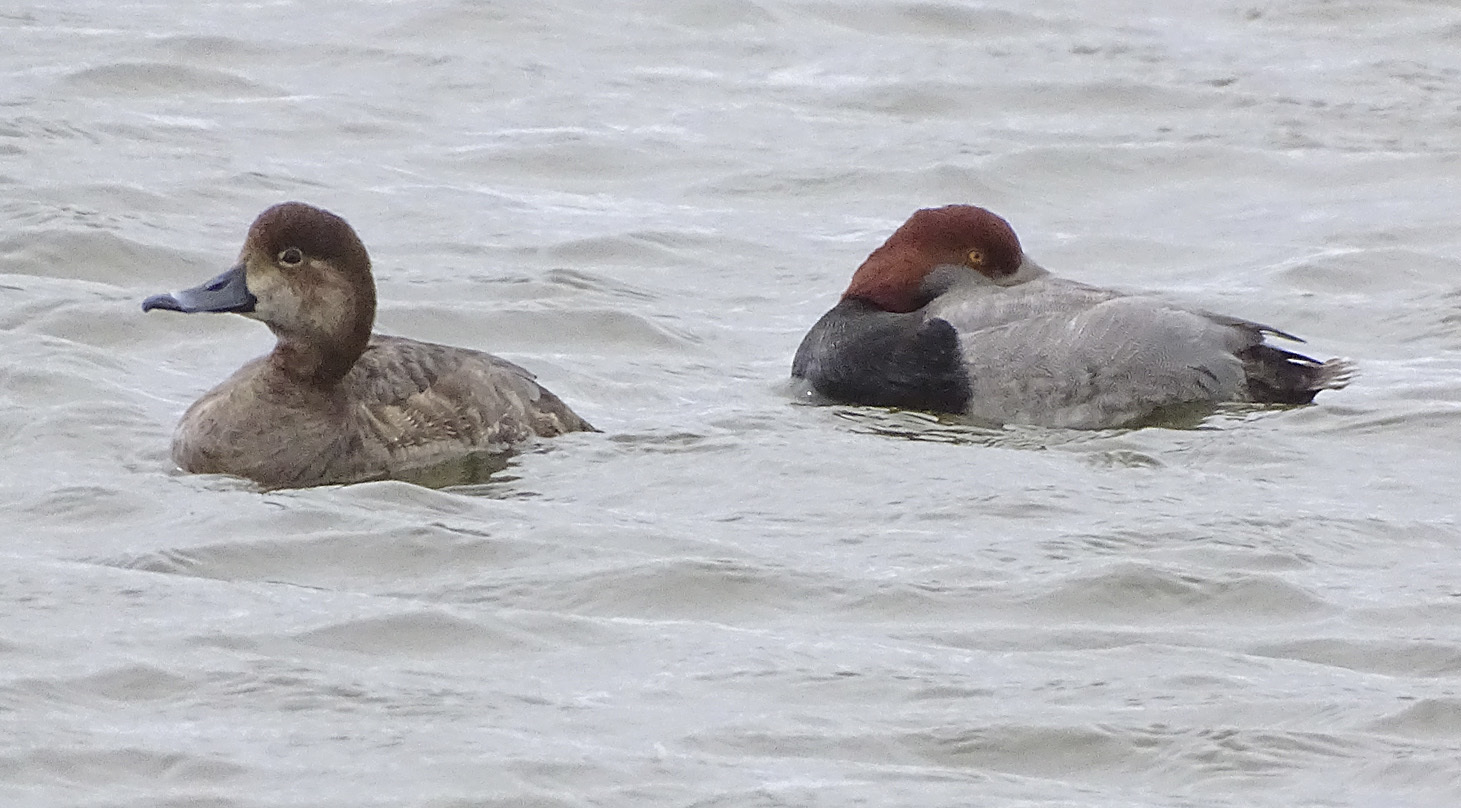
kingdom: Animalia
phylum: Chordata
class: Aves
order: Anseriformes
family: Anatidae
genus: Aythya
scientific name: Aythya americana
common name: Redhead
